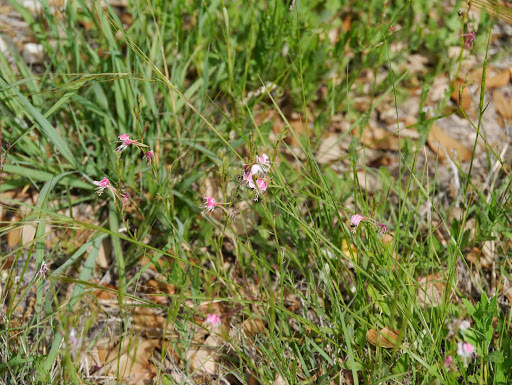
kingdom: Plantae
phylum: Tracheophyta
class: Magnoliopsida
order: Myrtales
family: Onagraceae
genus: Oenothera
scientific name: Oenothera suffulta
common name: Kisses
